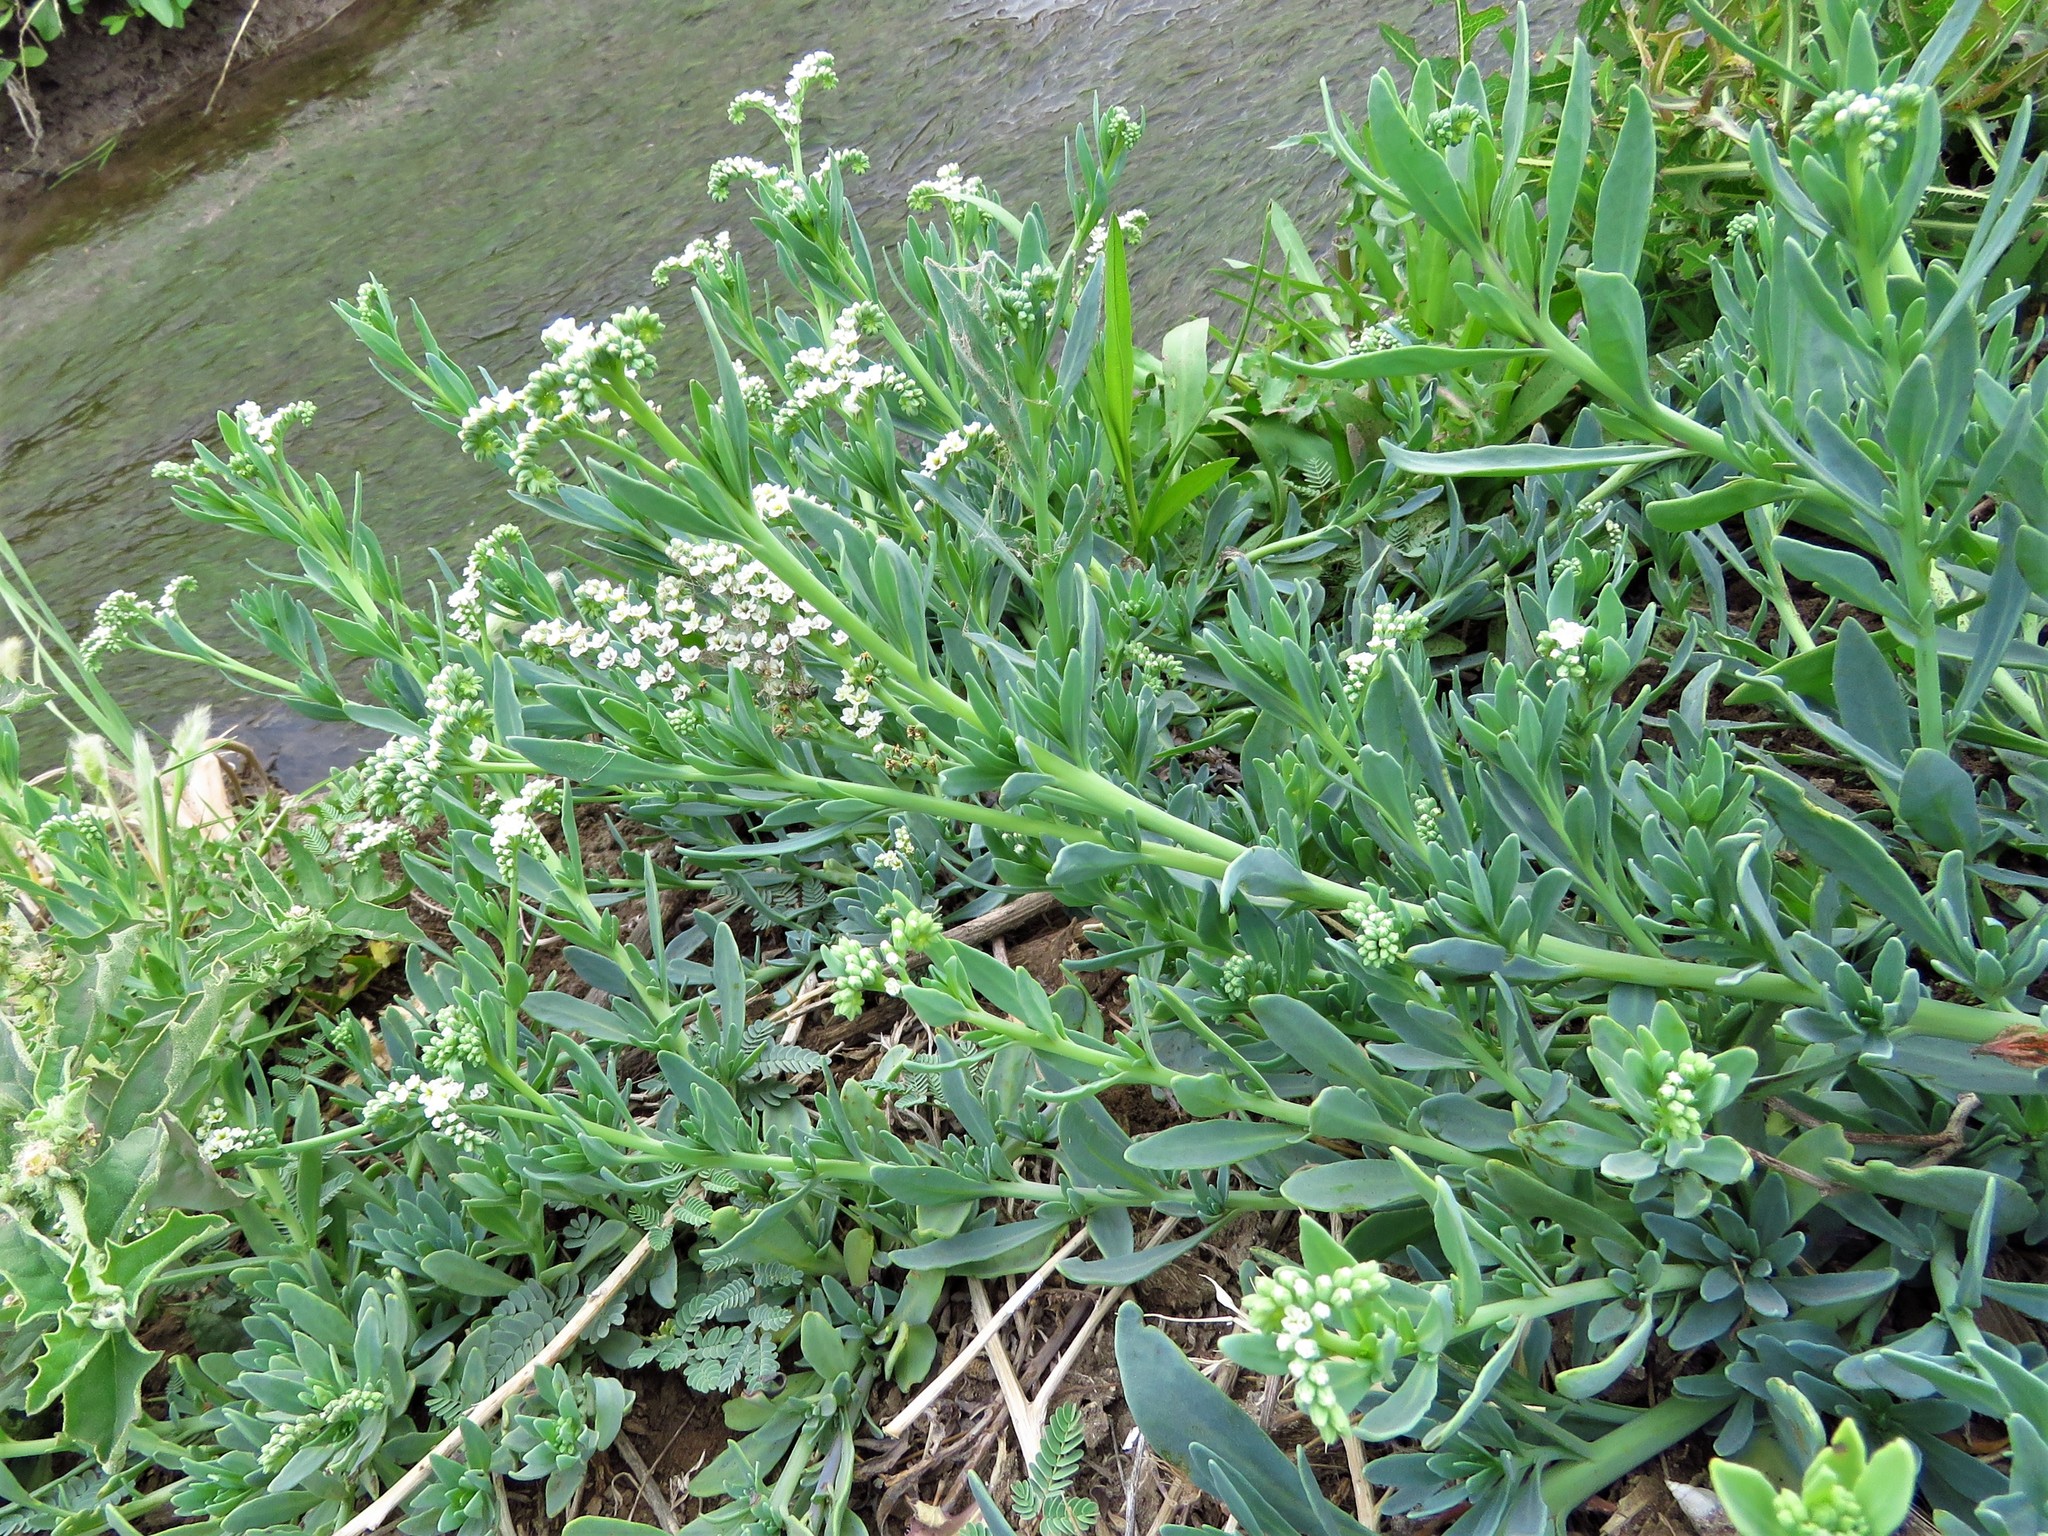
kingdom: Plantae
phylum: Tracheophyta
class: Magnoliopsida
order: Boraginales
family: Heliotropiaceae
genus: Heliotropium
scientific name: Heliotropium curassavicum
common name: Seaside heliotrope
